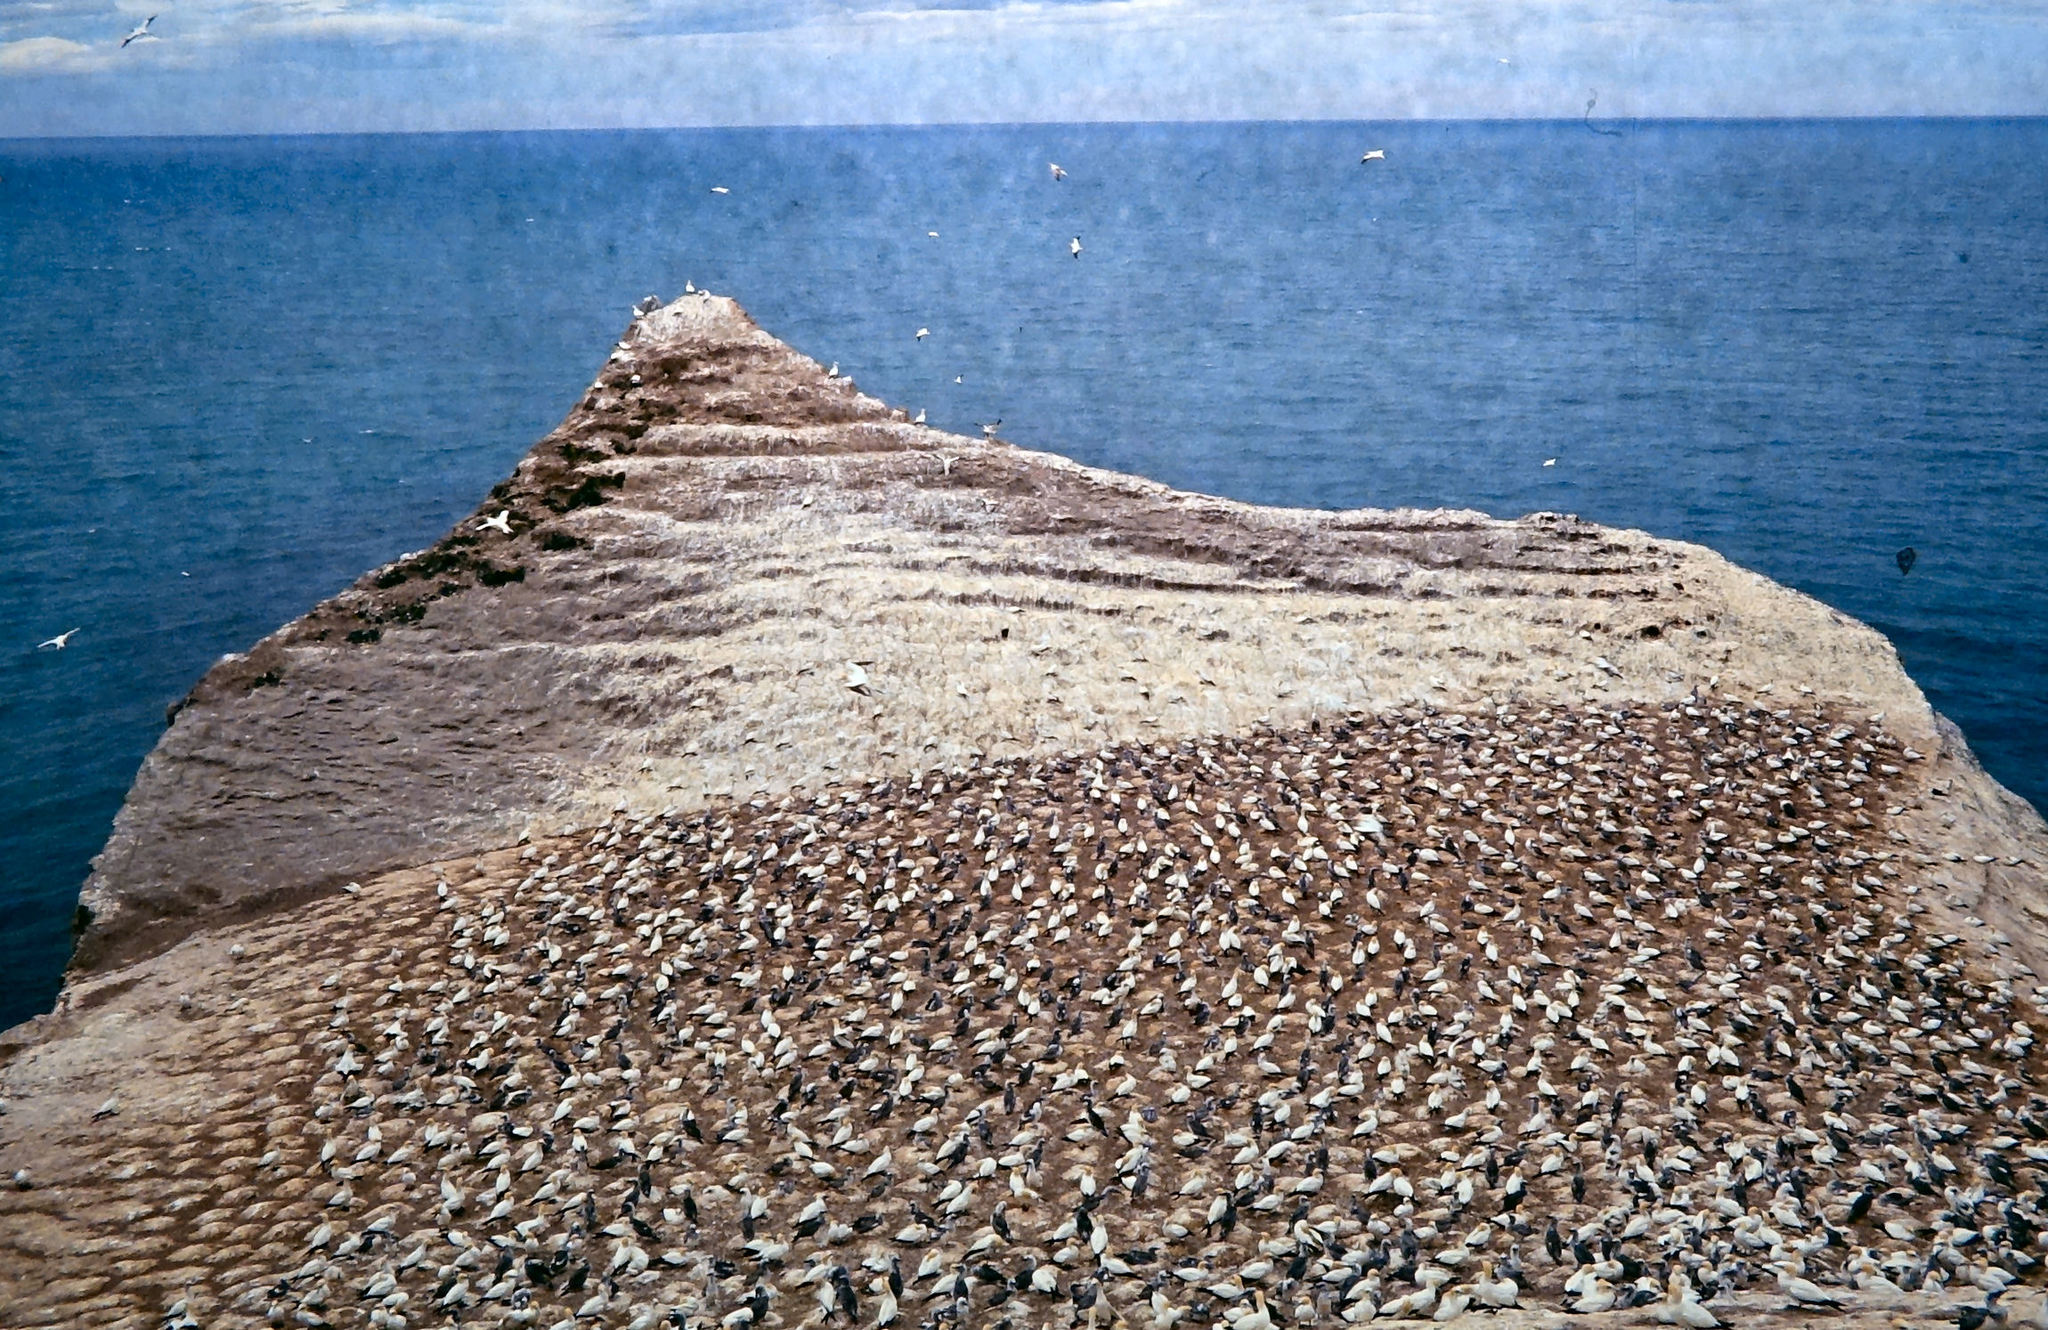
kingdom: Animalia
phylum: Chordata
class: Aves
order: Suliformes
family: Sulidae
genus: Morus
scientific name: Morus serrator
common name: Australasian gannet
